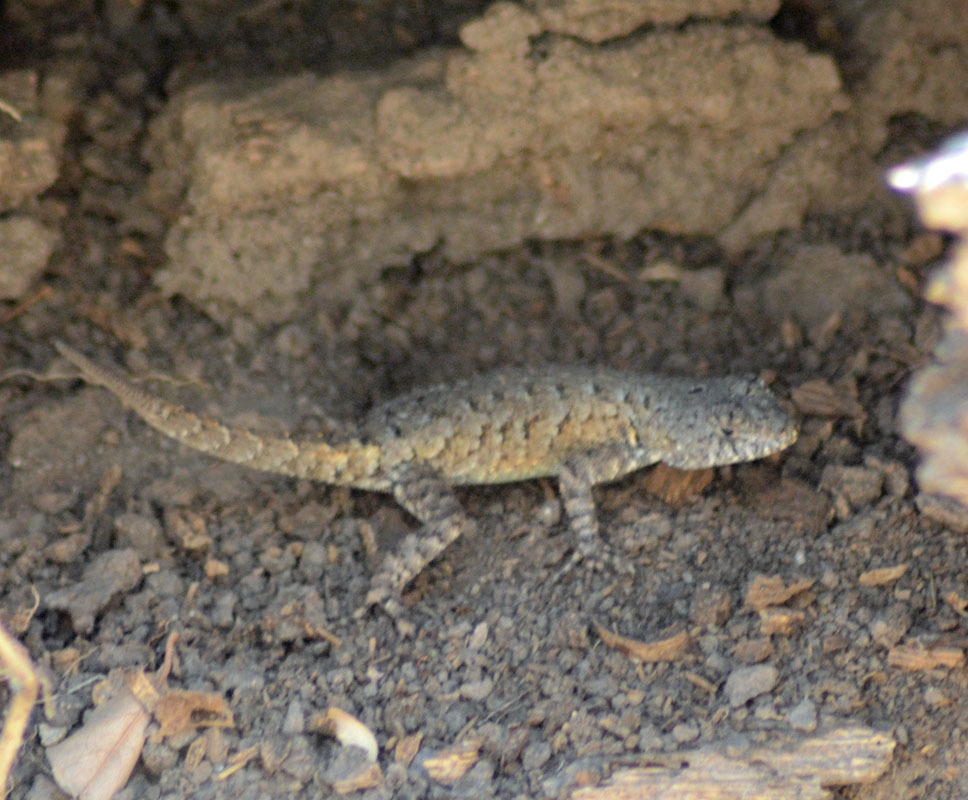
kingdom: Animalia
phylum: Chordata
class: Squamata
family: Phrynosomatidae
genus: Sceloporus
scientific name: Sceloporus nelsoni
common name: Nelson's spiny lizard
